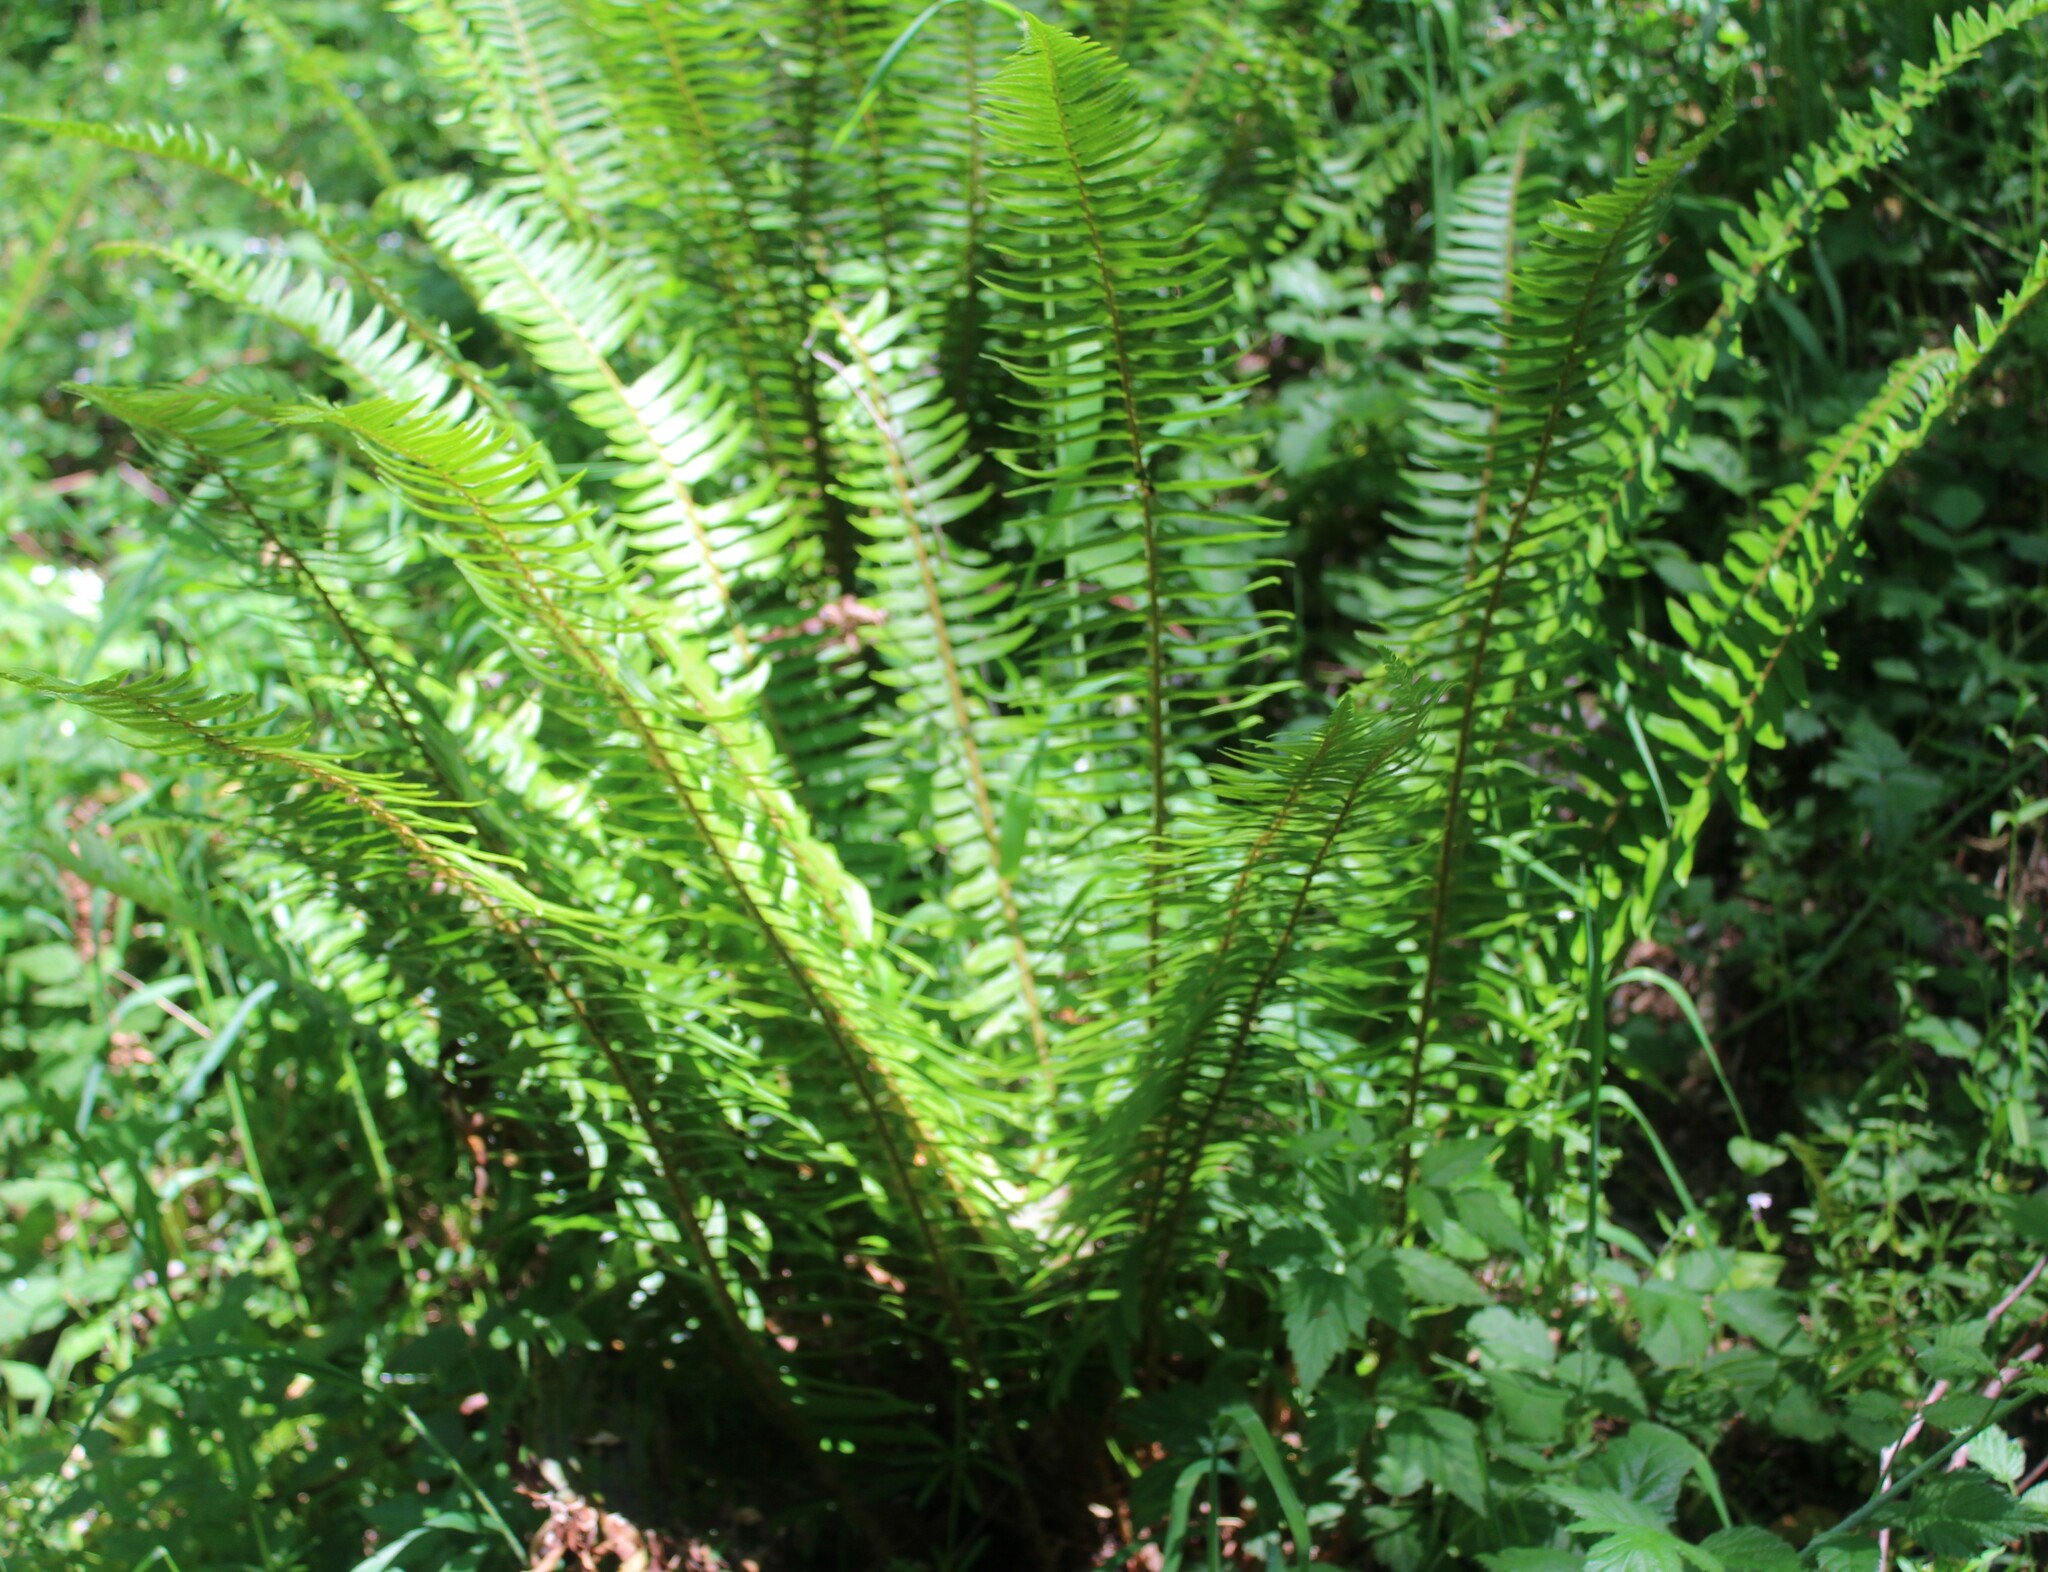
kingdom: Plantae
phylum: Tracheophyta
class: Polypodiopsida
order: Polypodiales
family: Dryopteridaceae
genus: Polystichum
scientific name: Polystichum munitum
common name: Western sword-fern
